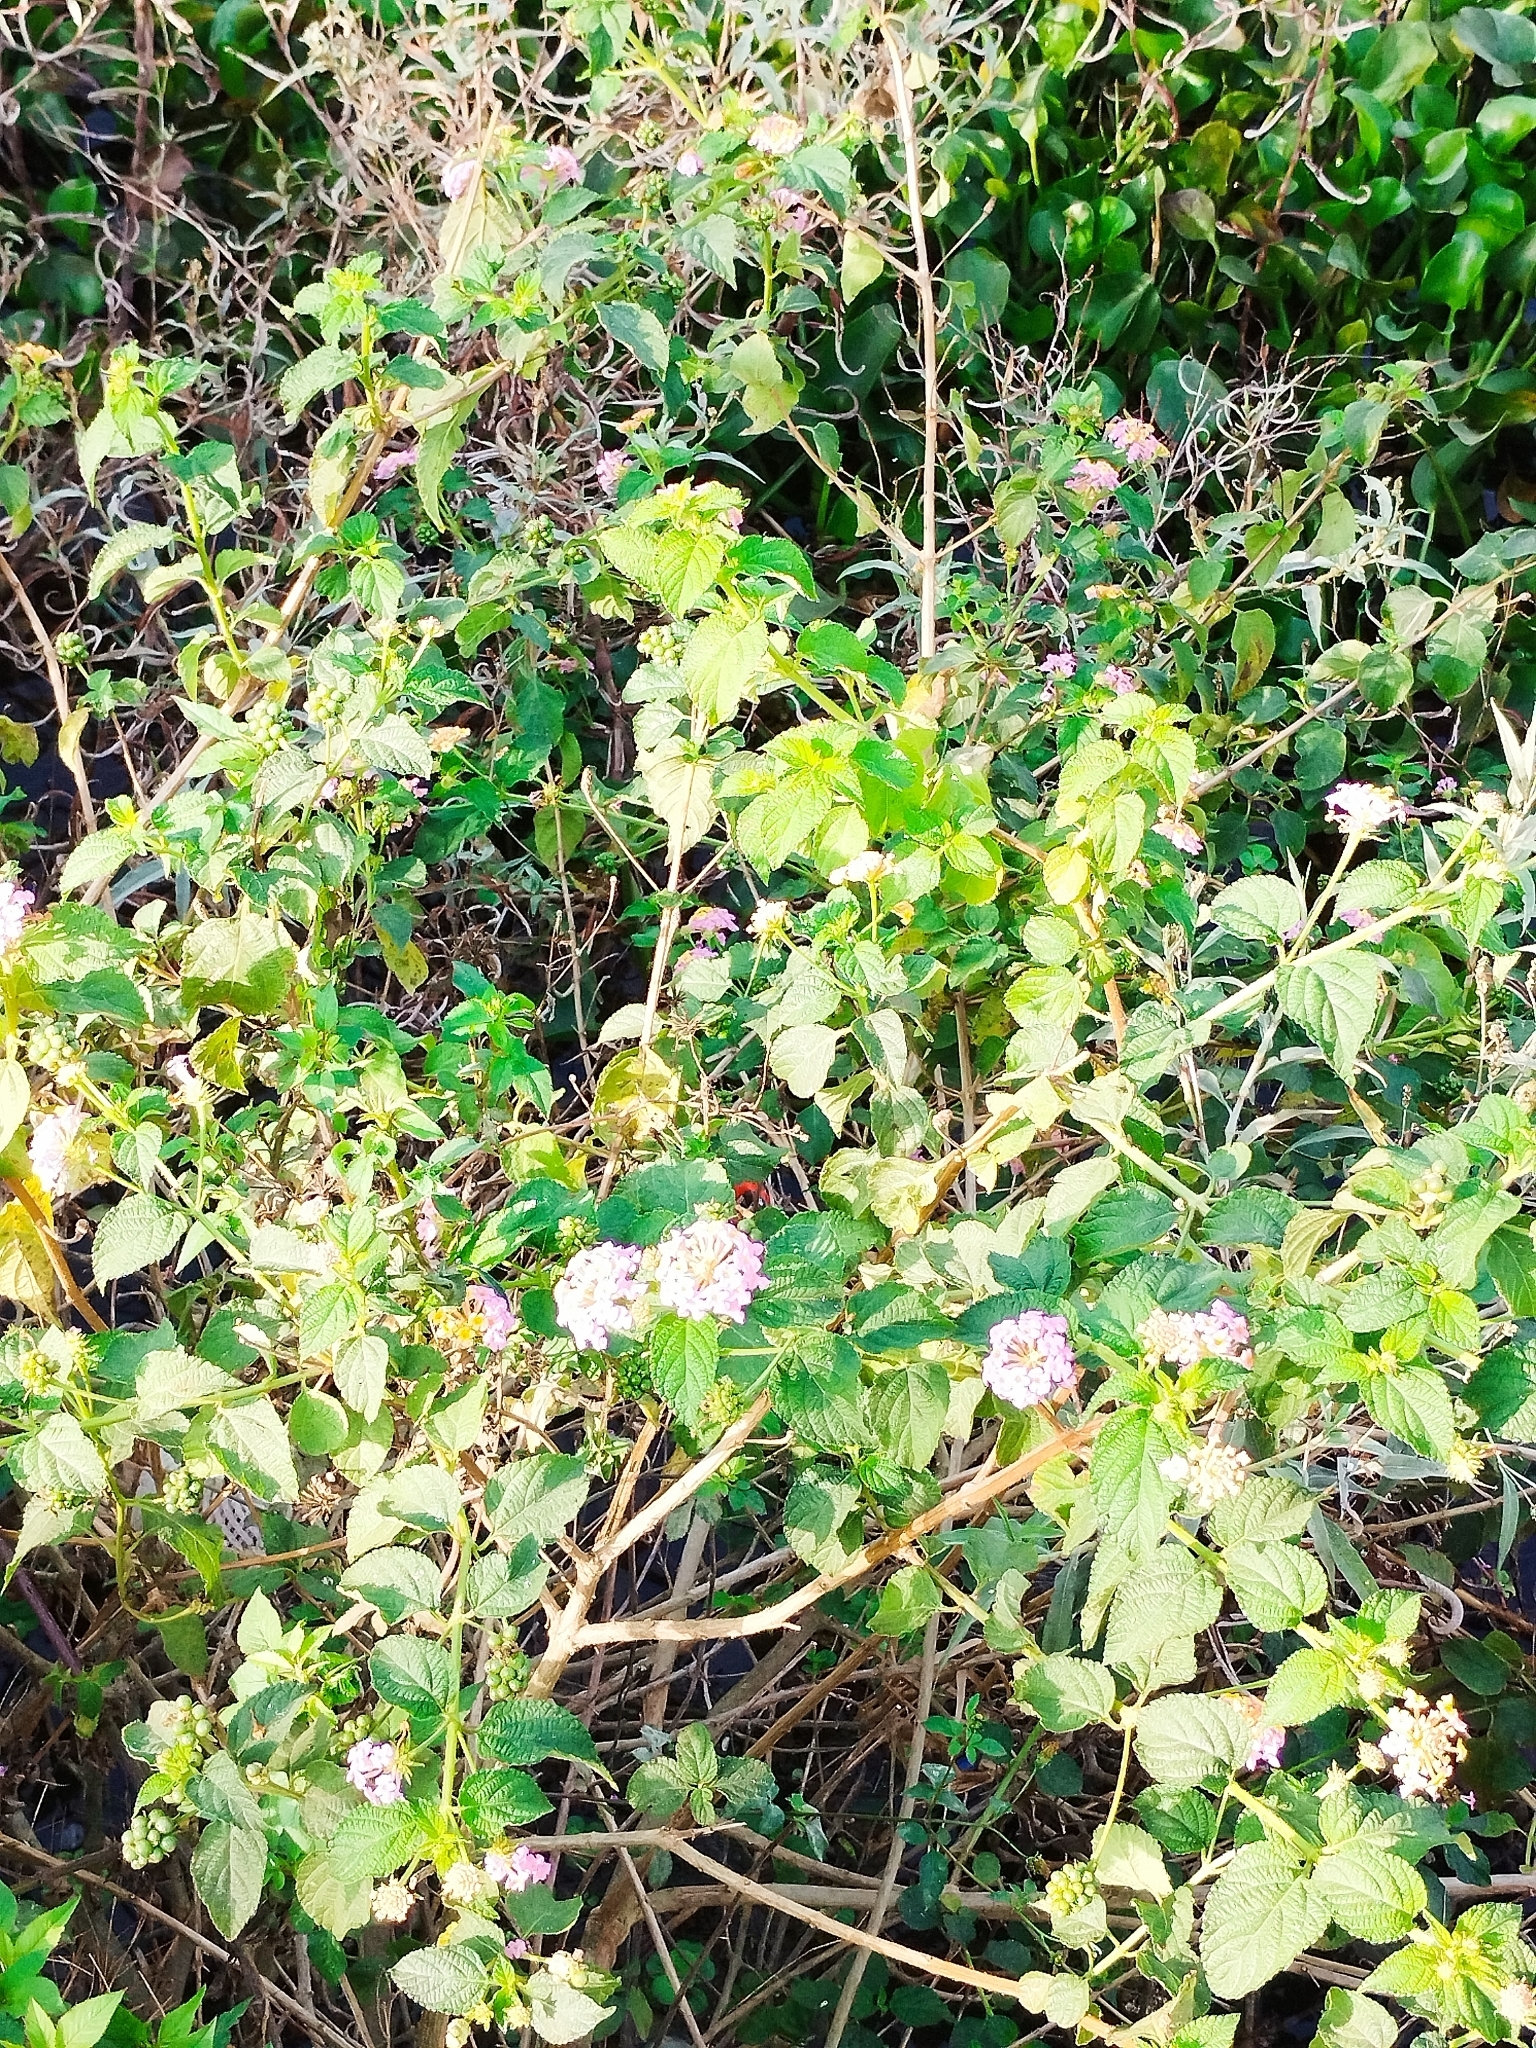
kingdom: Plantae
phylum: Tracheophyta
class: Magnoliopsida
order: Lamiales
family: Verbenaceae
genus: Lantana
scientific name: Lantana camara
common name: Lantana
